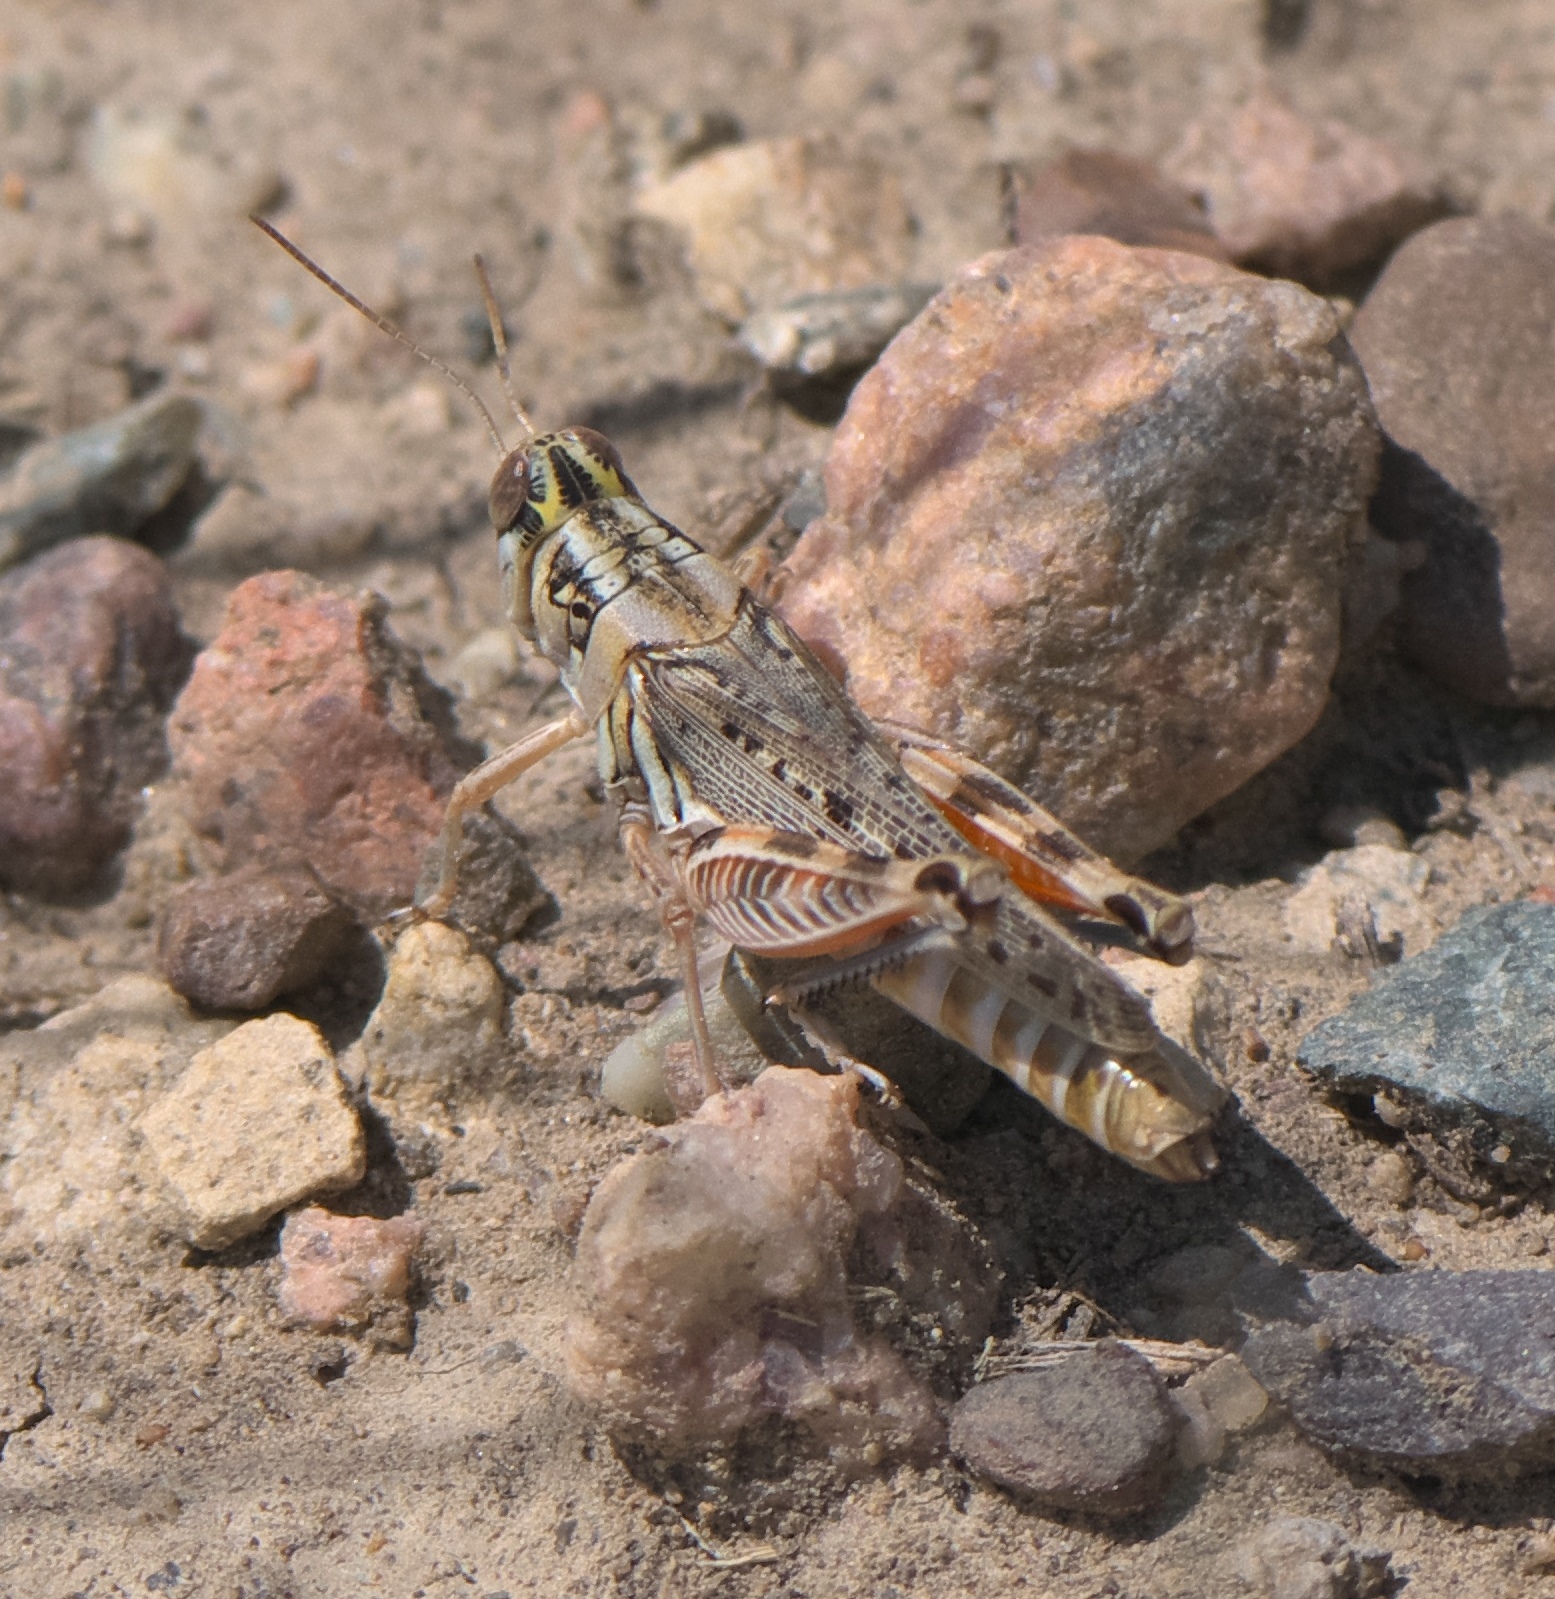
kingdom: Animalia
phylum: Arthropoda
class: Insecta
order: Orthoptera
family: Acrididae
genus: Melanoplus
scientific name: Melanoplus occidentalis
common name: Flabellate grasshopper
